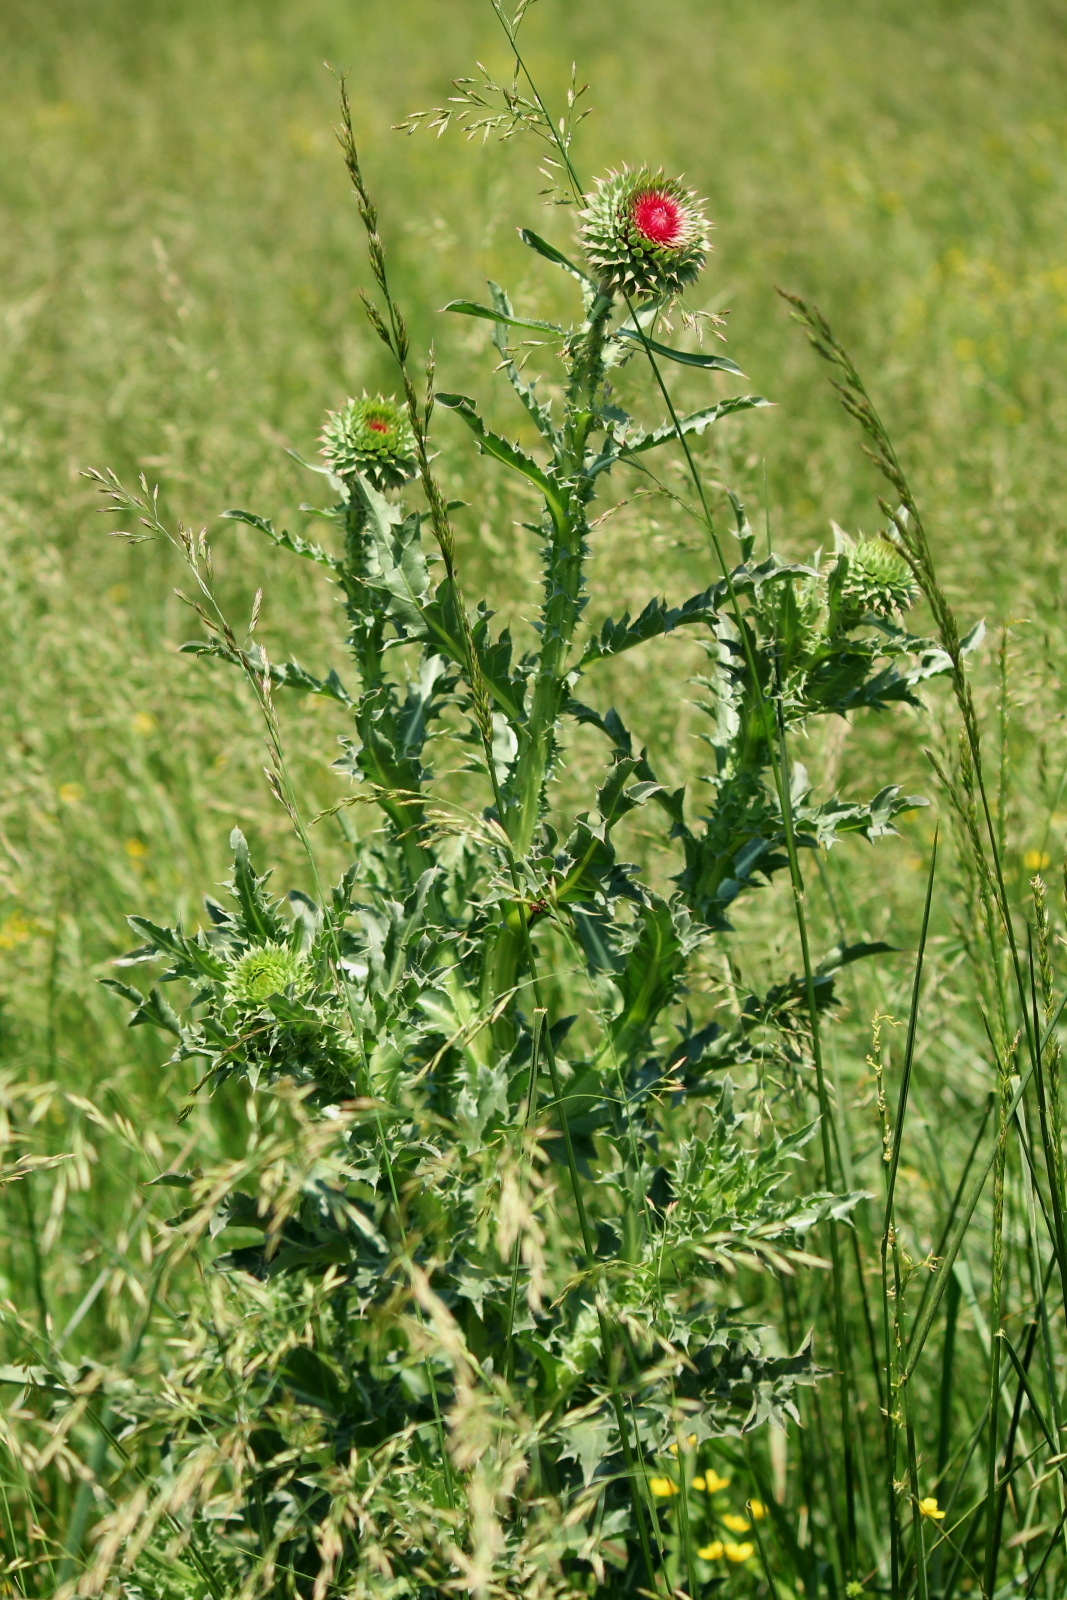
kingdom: Plantae
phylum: Tracheophyta
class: Magnoliopsida
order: Asterales
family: Asteraceae
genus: Carduus
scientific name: Carduus nutans
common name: Musk thistle
